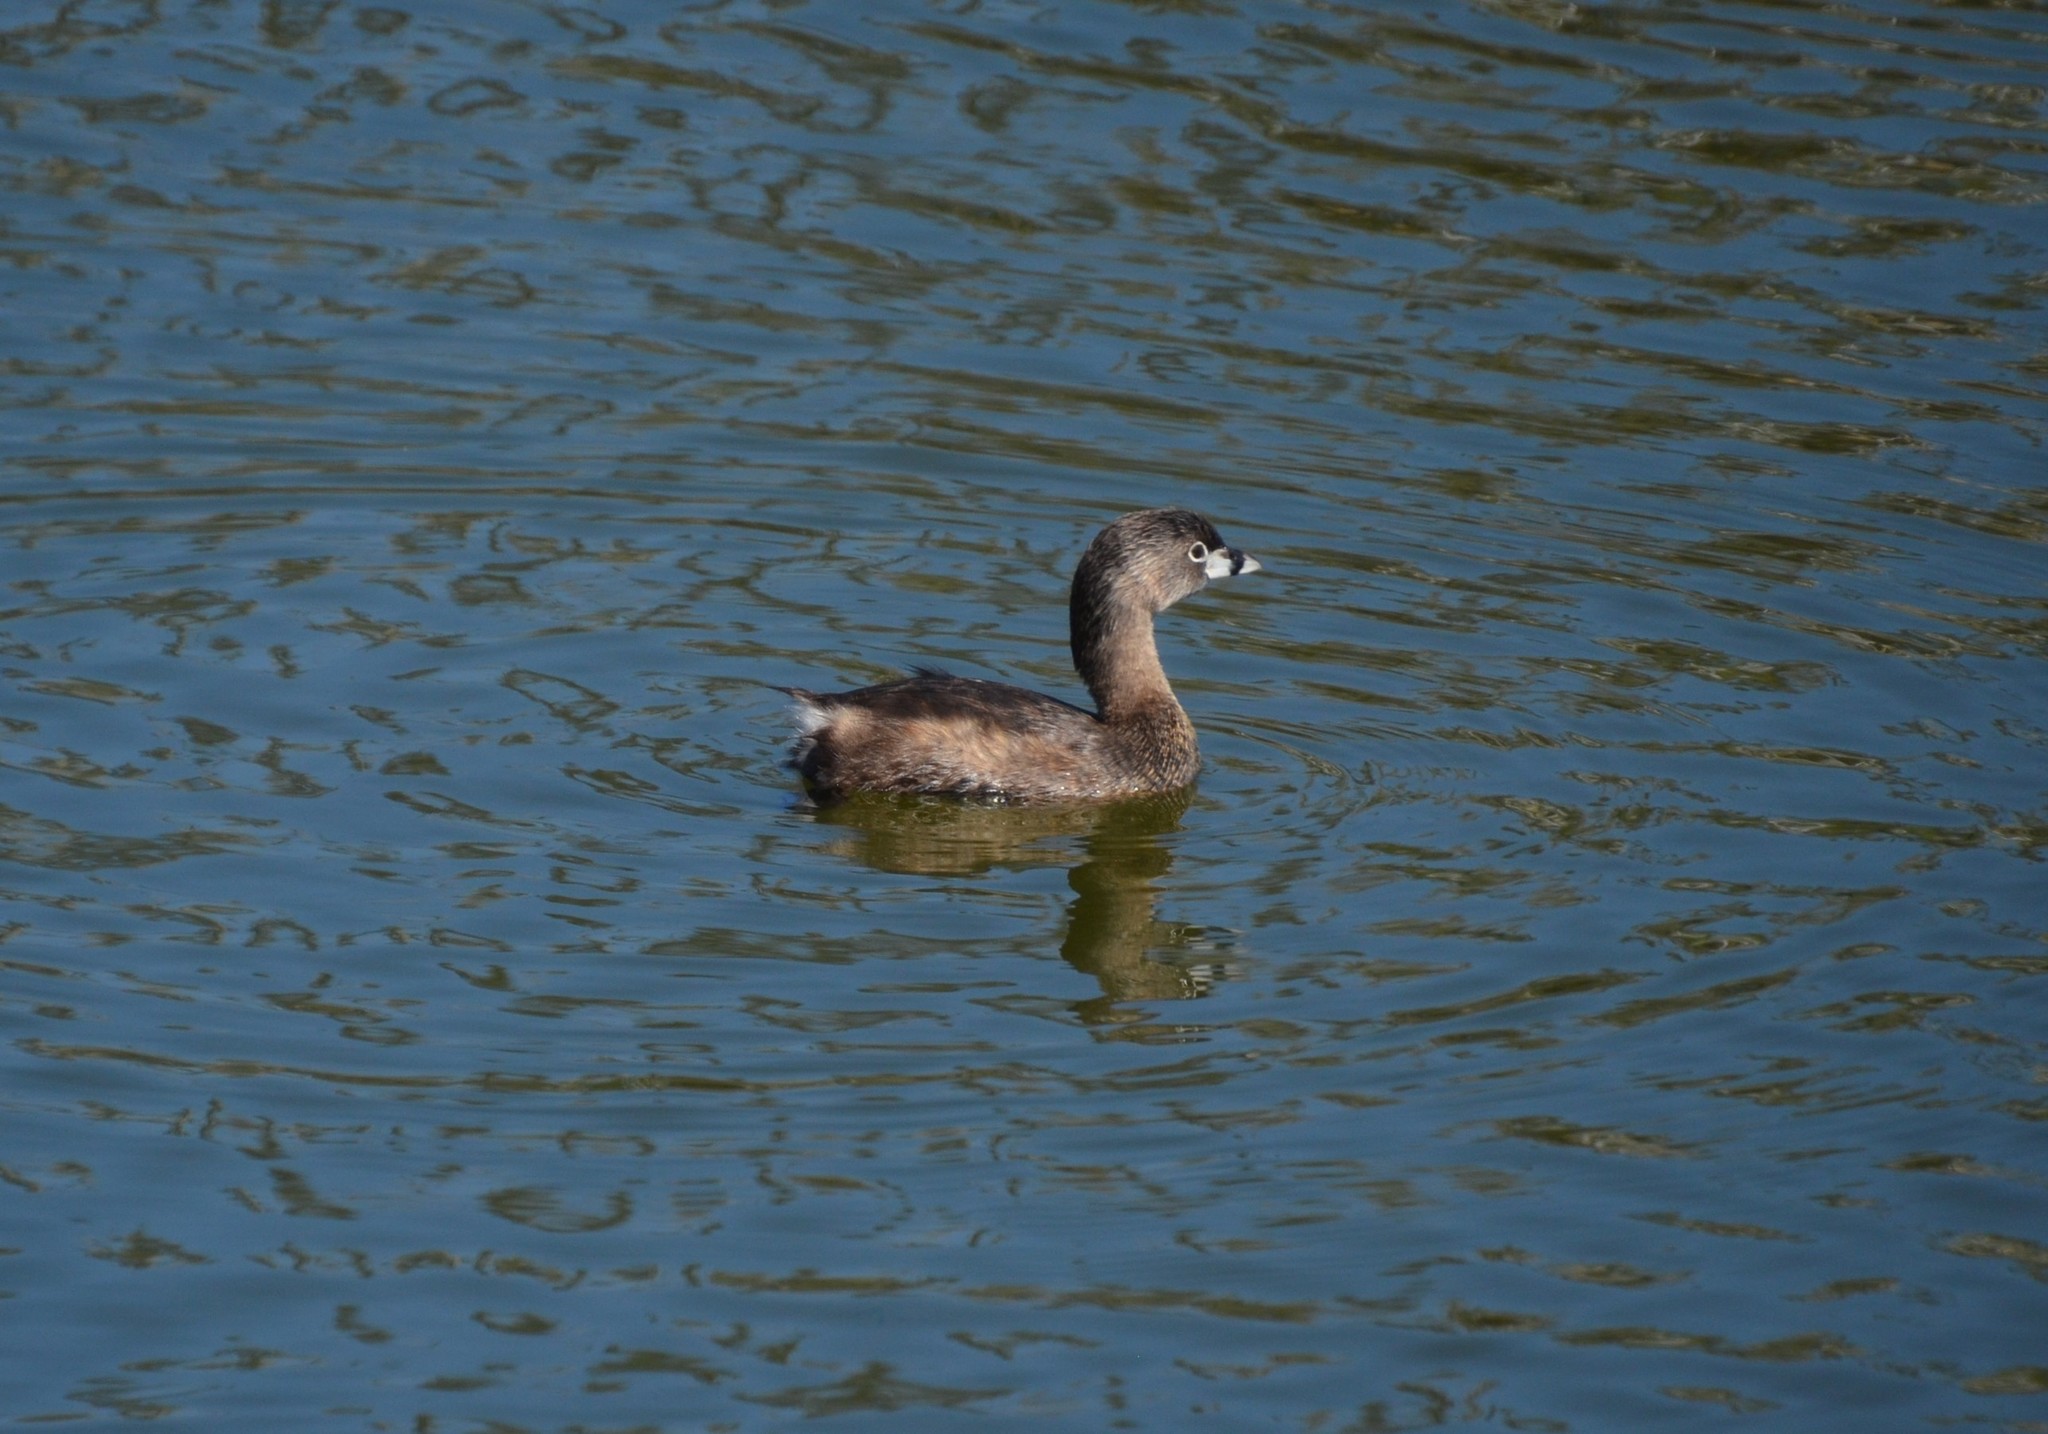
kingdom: Animalia
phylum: Chordata
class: Aves
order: Podicipediformes
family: Podicipedidae
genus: Podilymbus
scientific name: Podilymbus podiceps
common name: Pied-billed grebe
